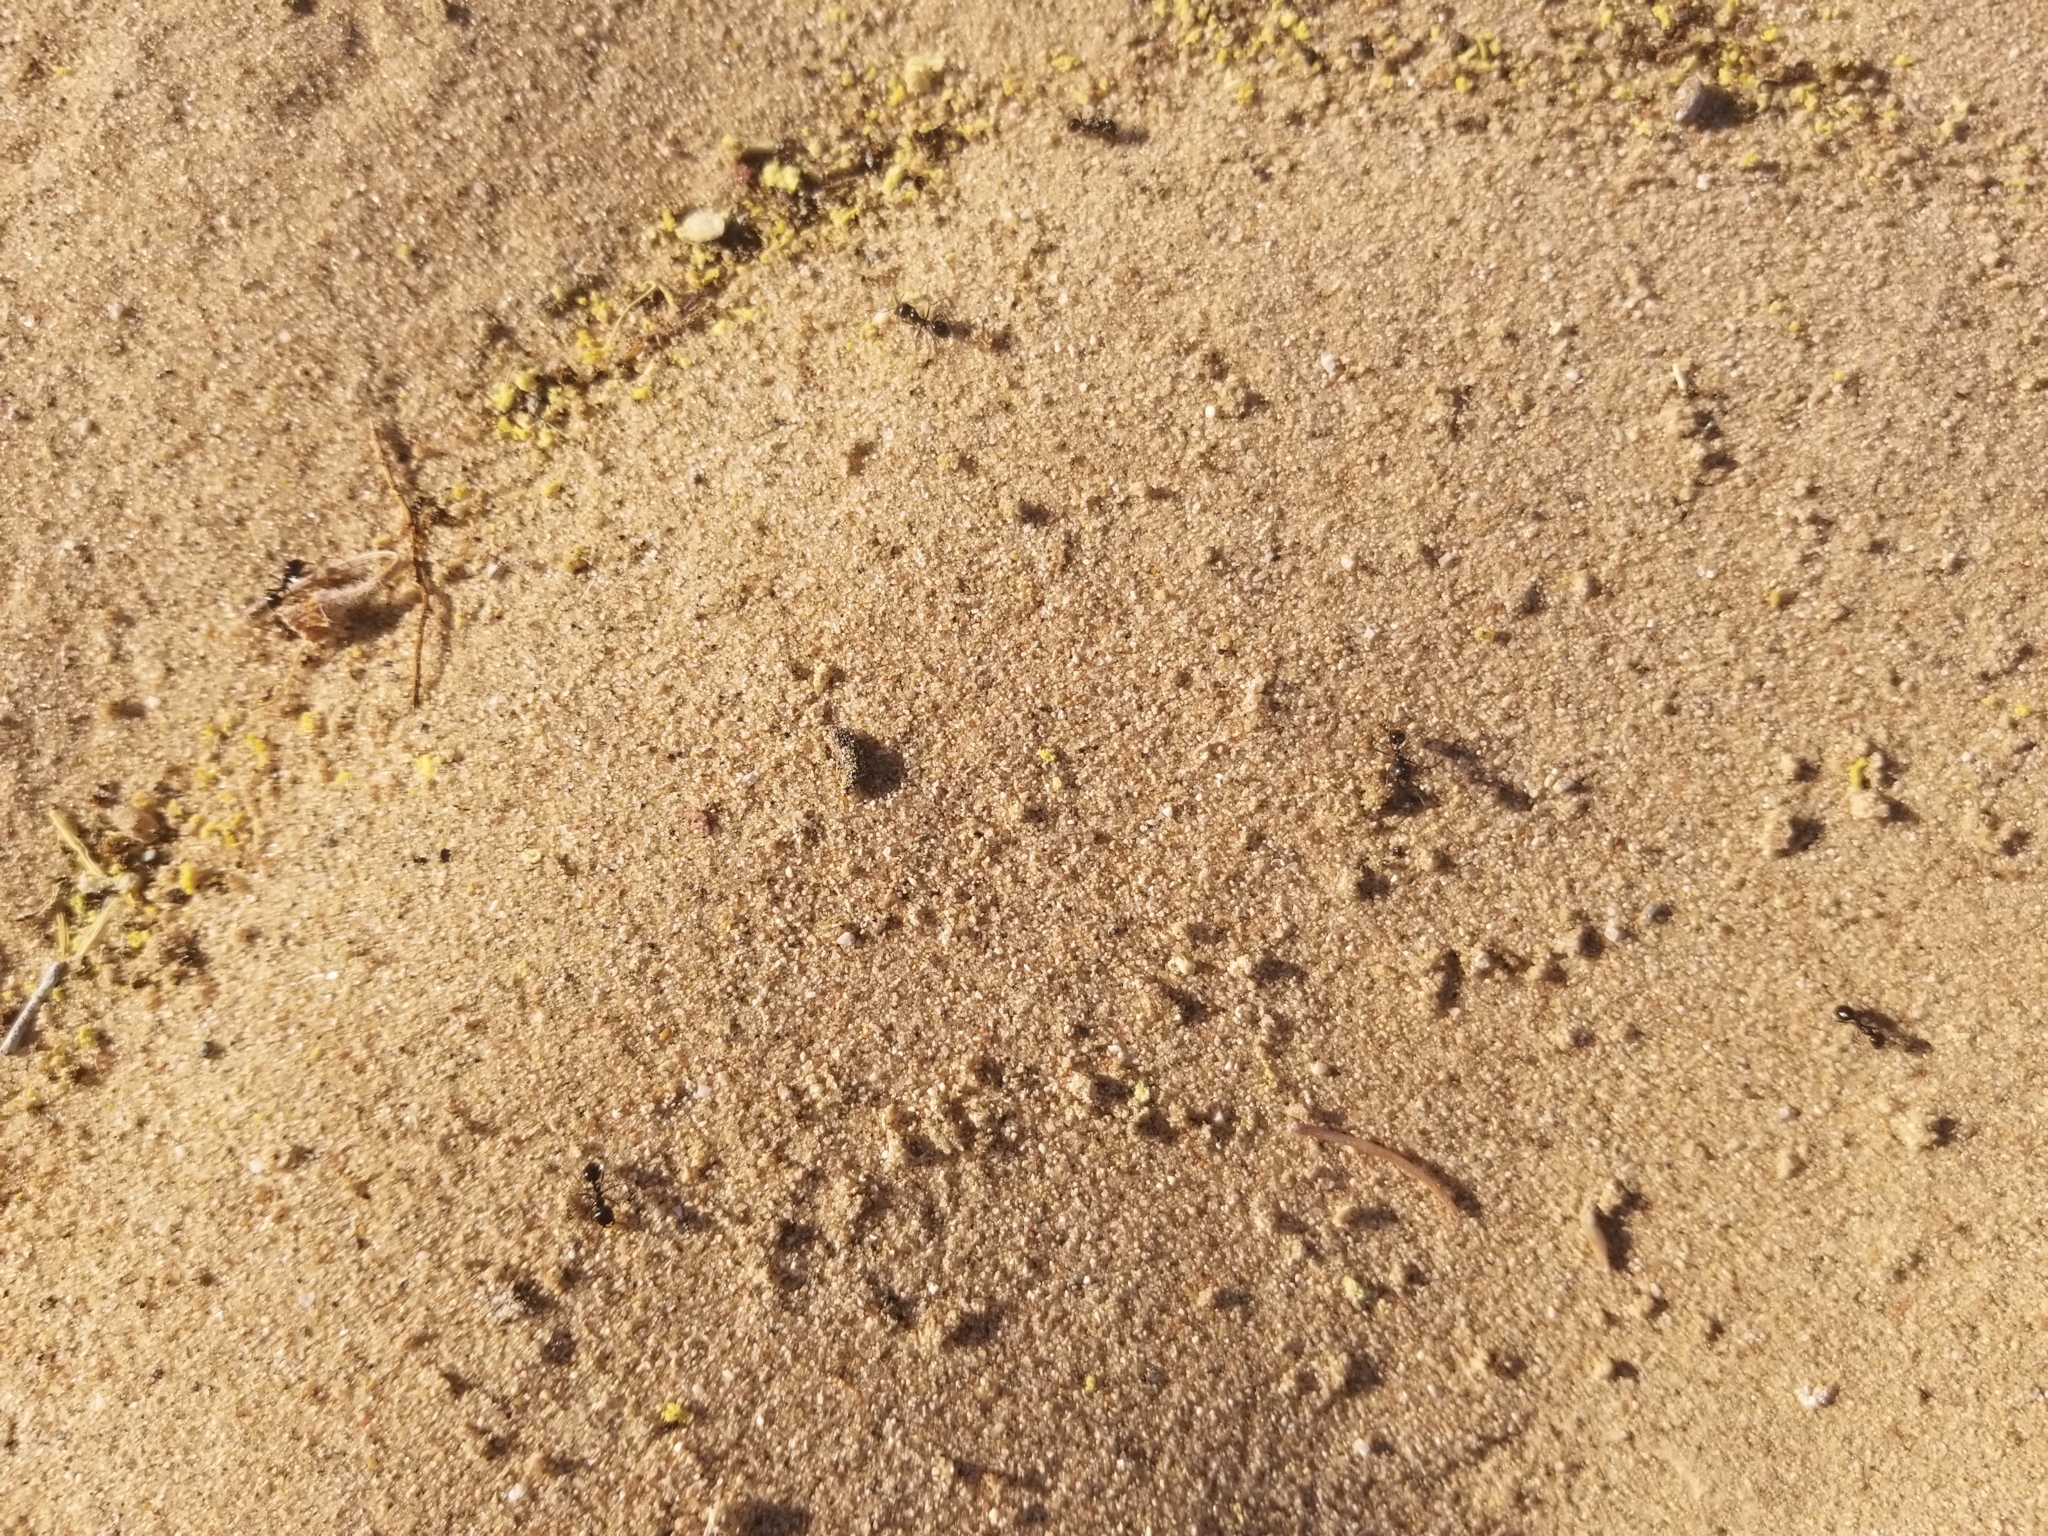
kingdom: Animalia
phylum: Arthropoda
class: Insecta
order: Hymenoptera
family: Formicidae
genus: Messor
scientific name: Messor pergandei
